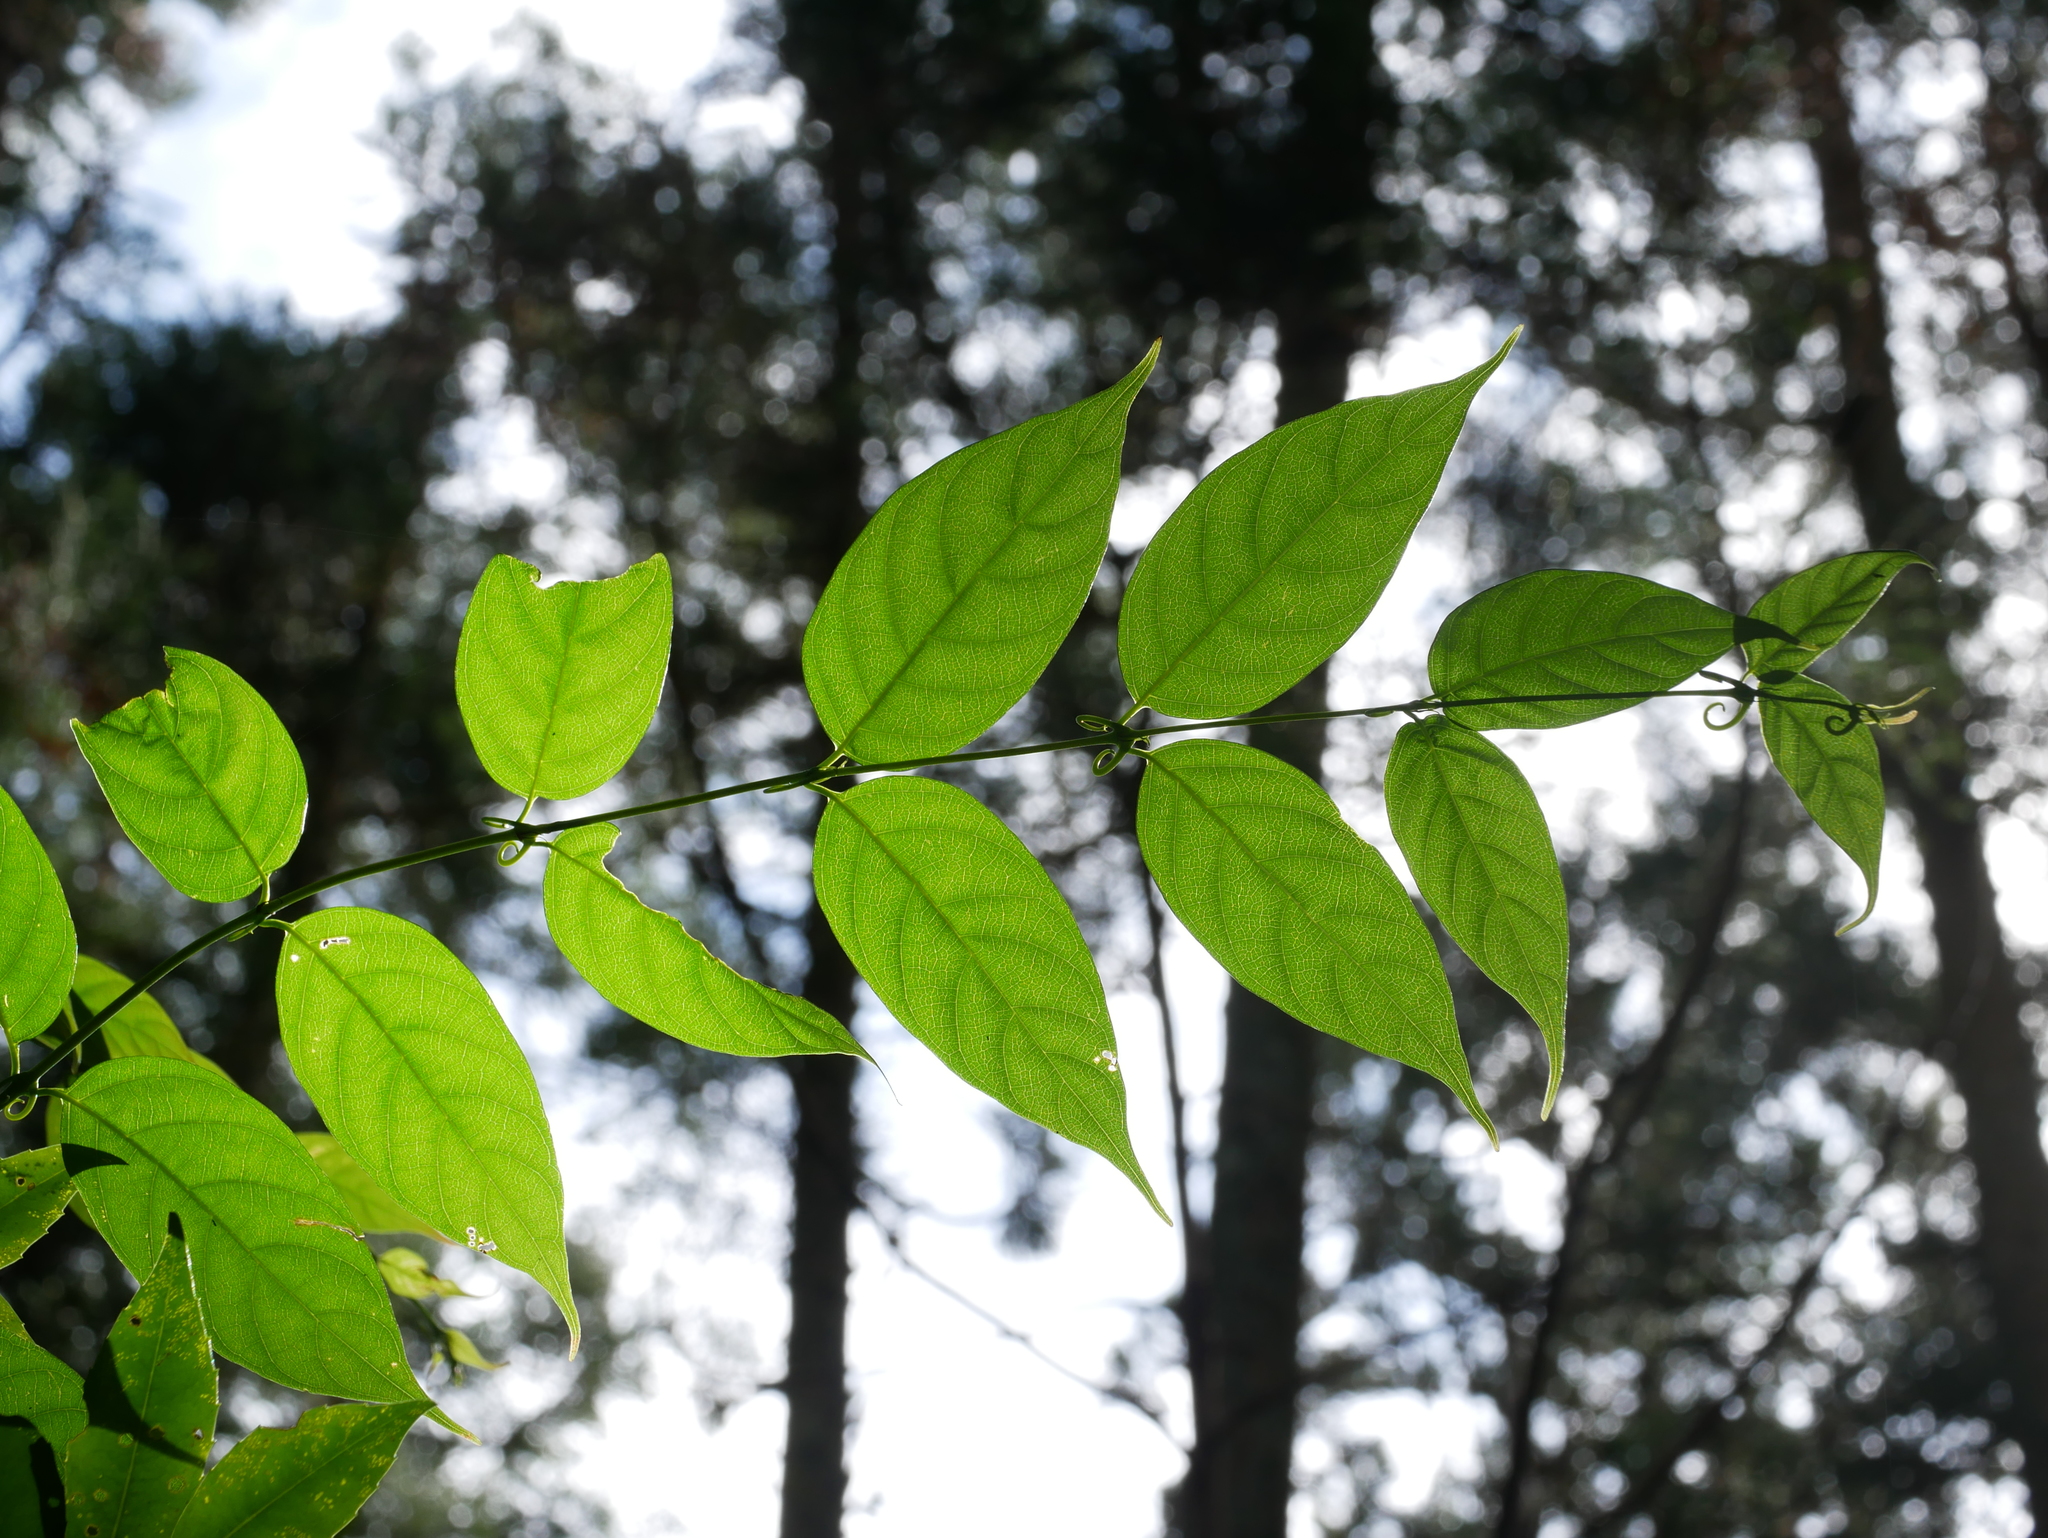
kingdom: Plantae
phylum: Tracheophyta
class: Magnoliopsida
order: Gentianales
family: Rubiaceae
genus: Uncaria
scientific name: Uncaria rhynchophylla
